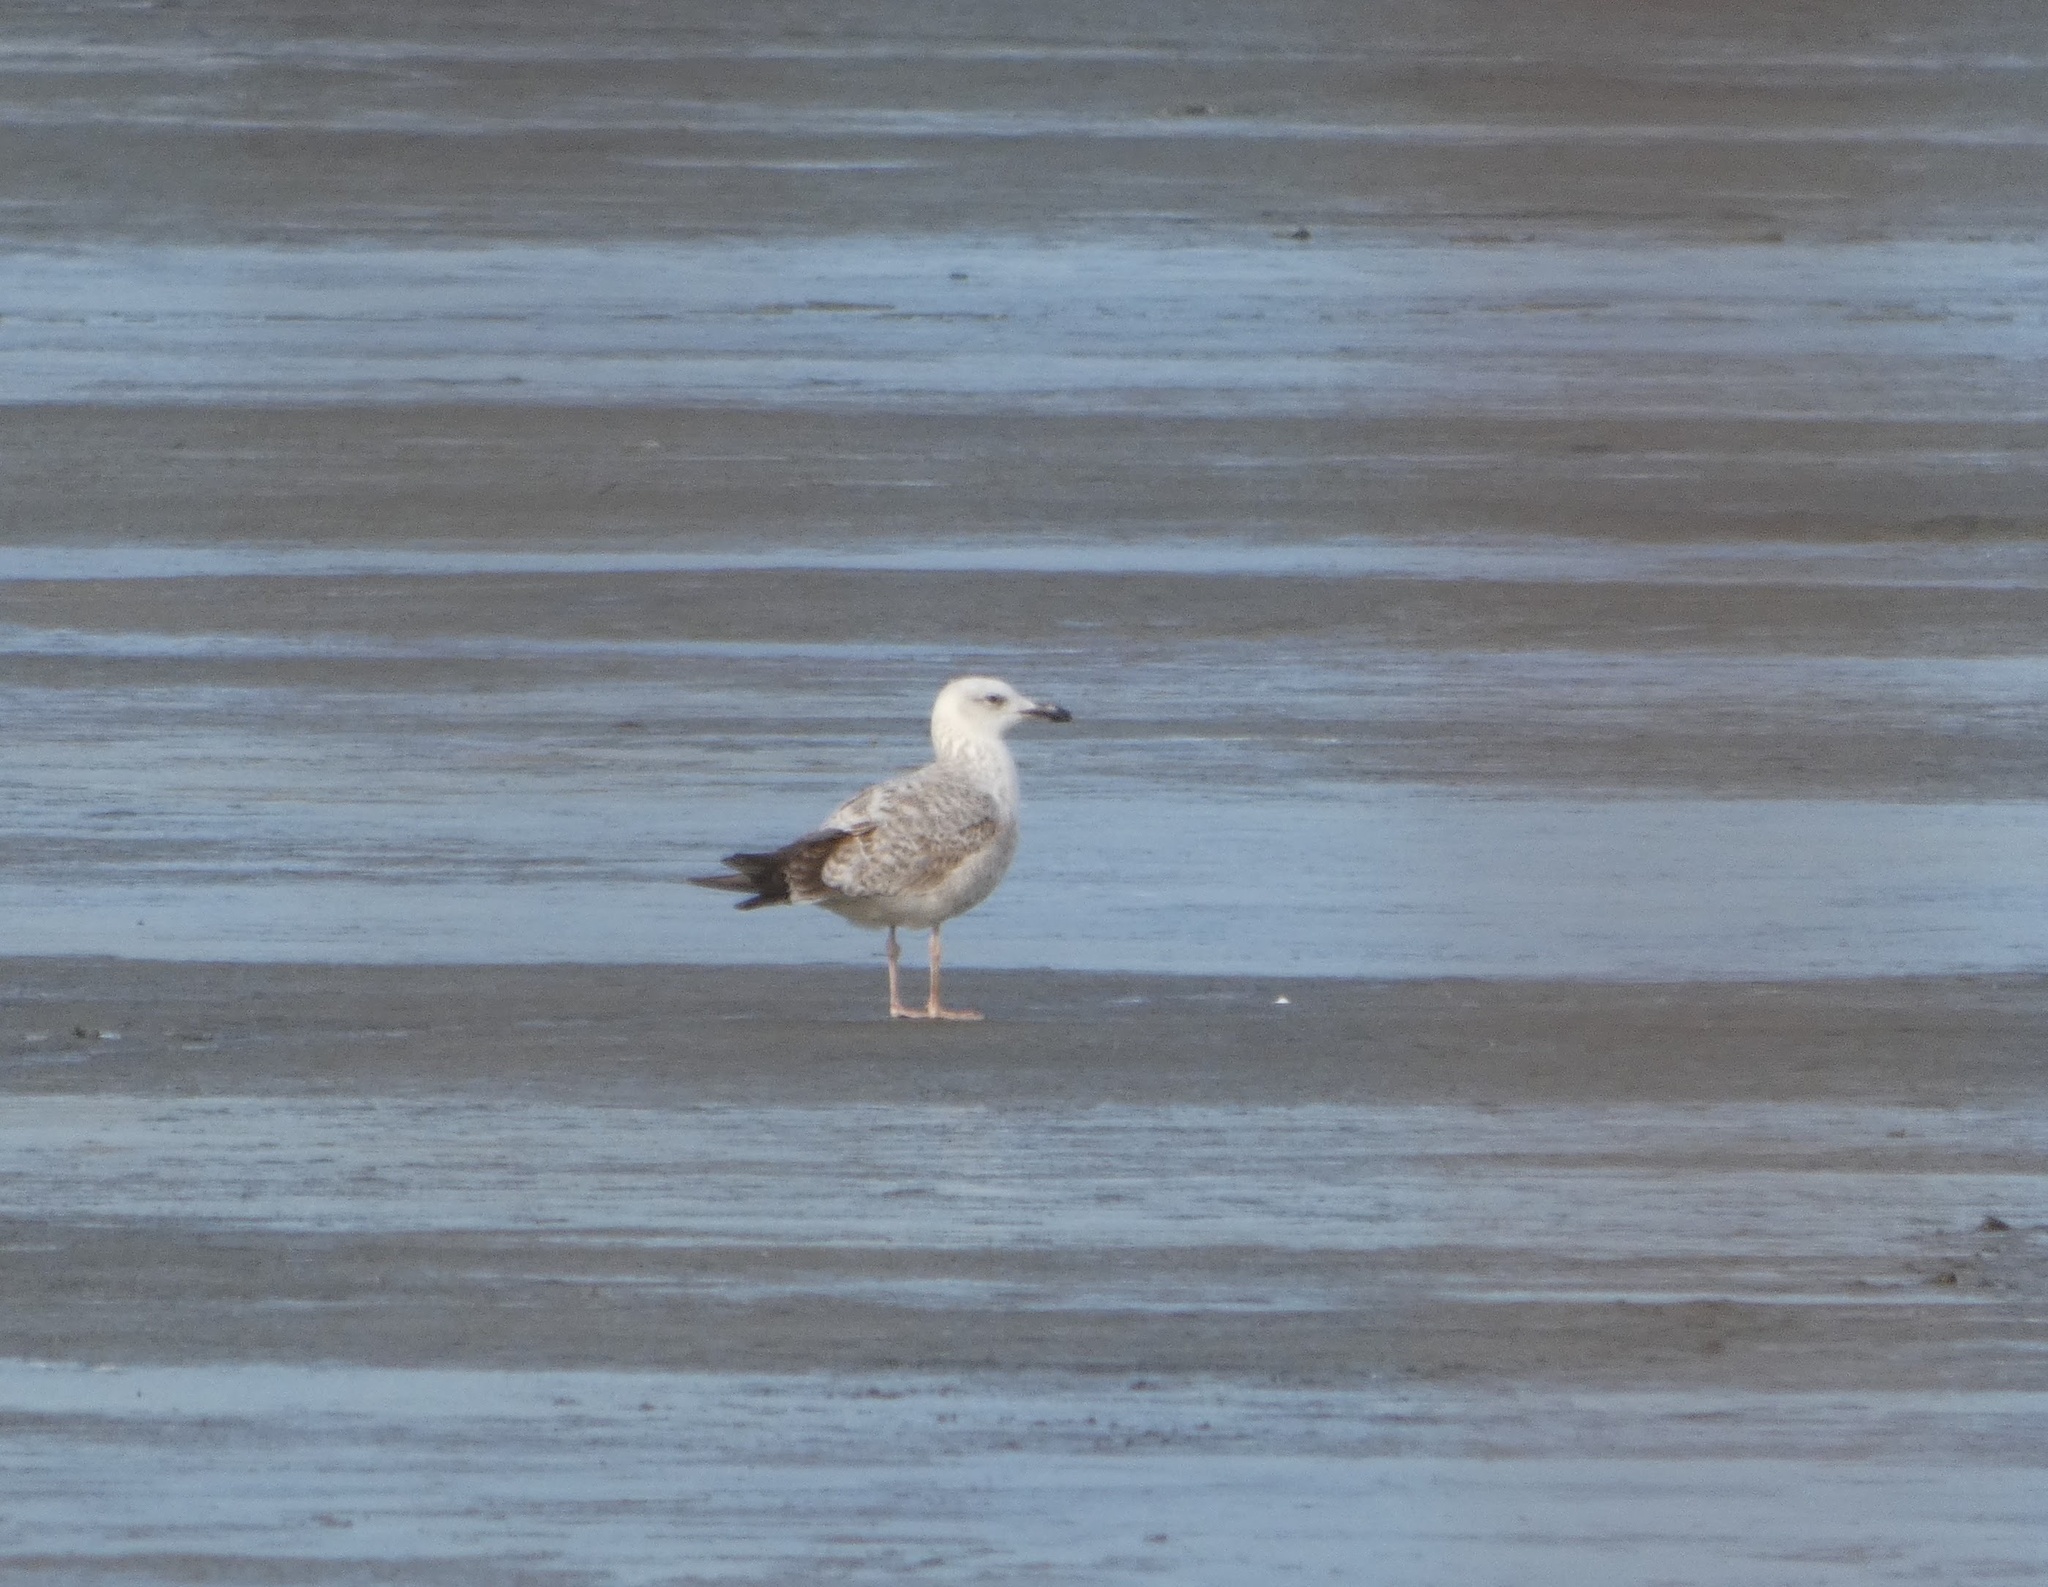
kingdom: Animalia
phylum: Chordata
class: Aves
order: Charadriiformes
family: Laridae
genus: Larus
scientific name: Larus cachinnans
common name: Caspian gull
